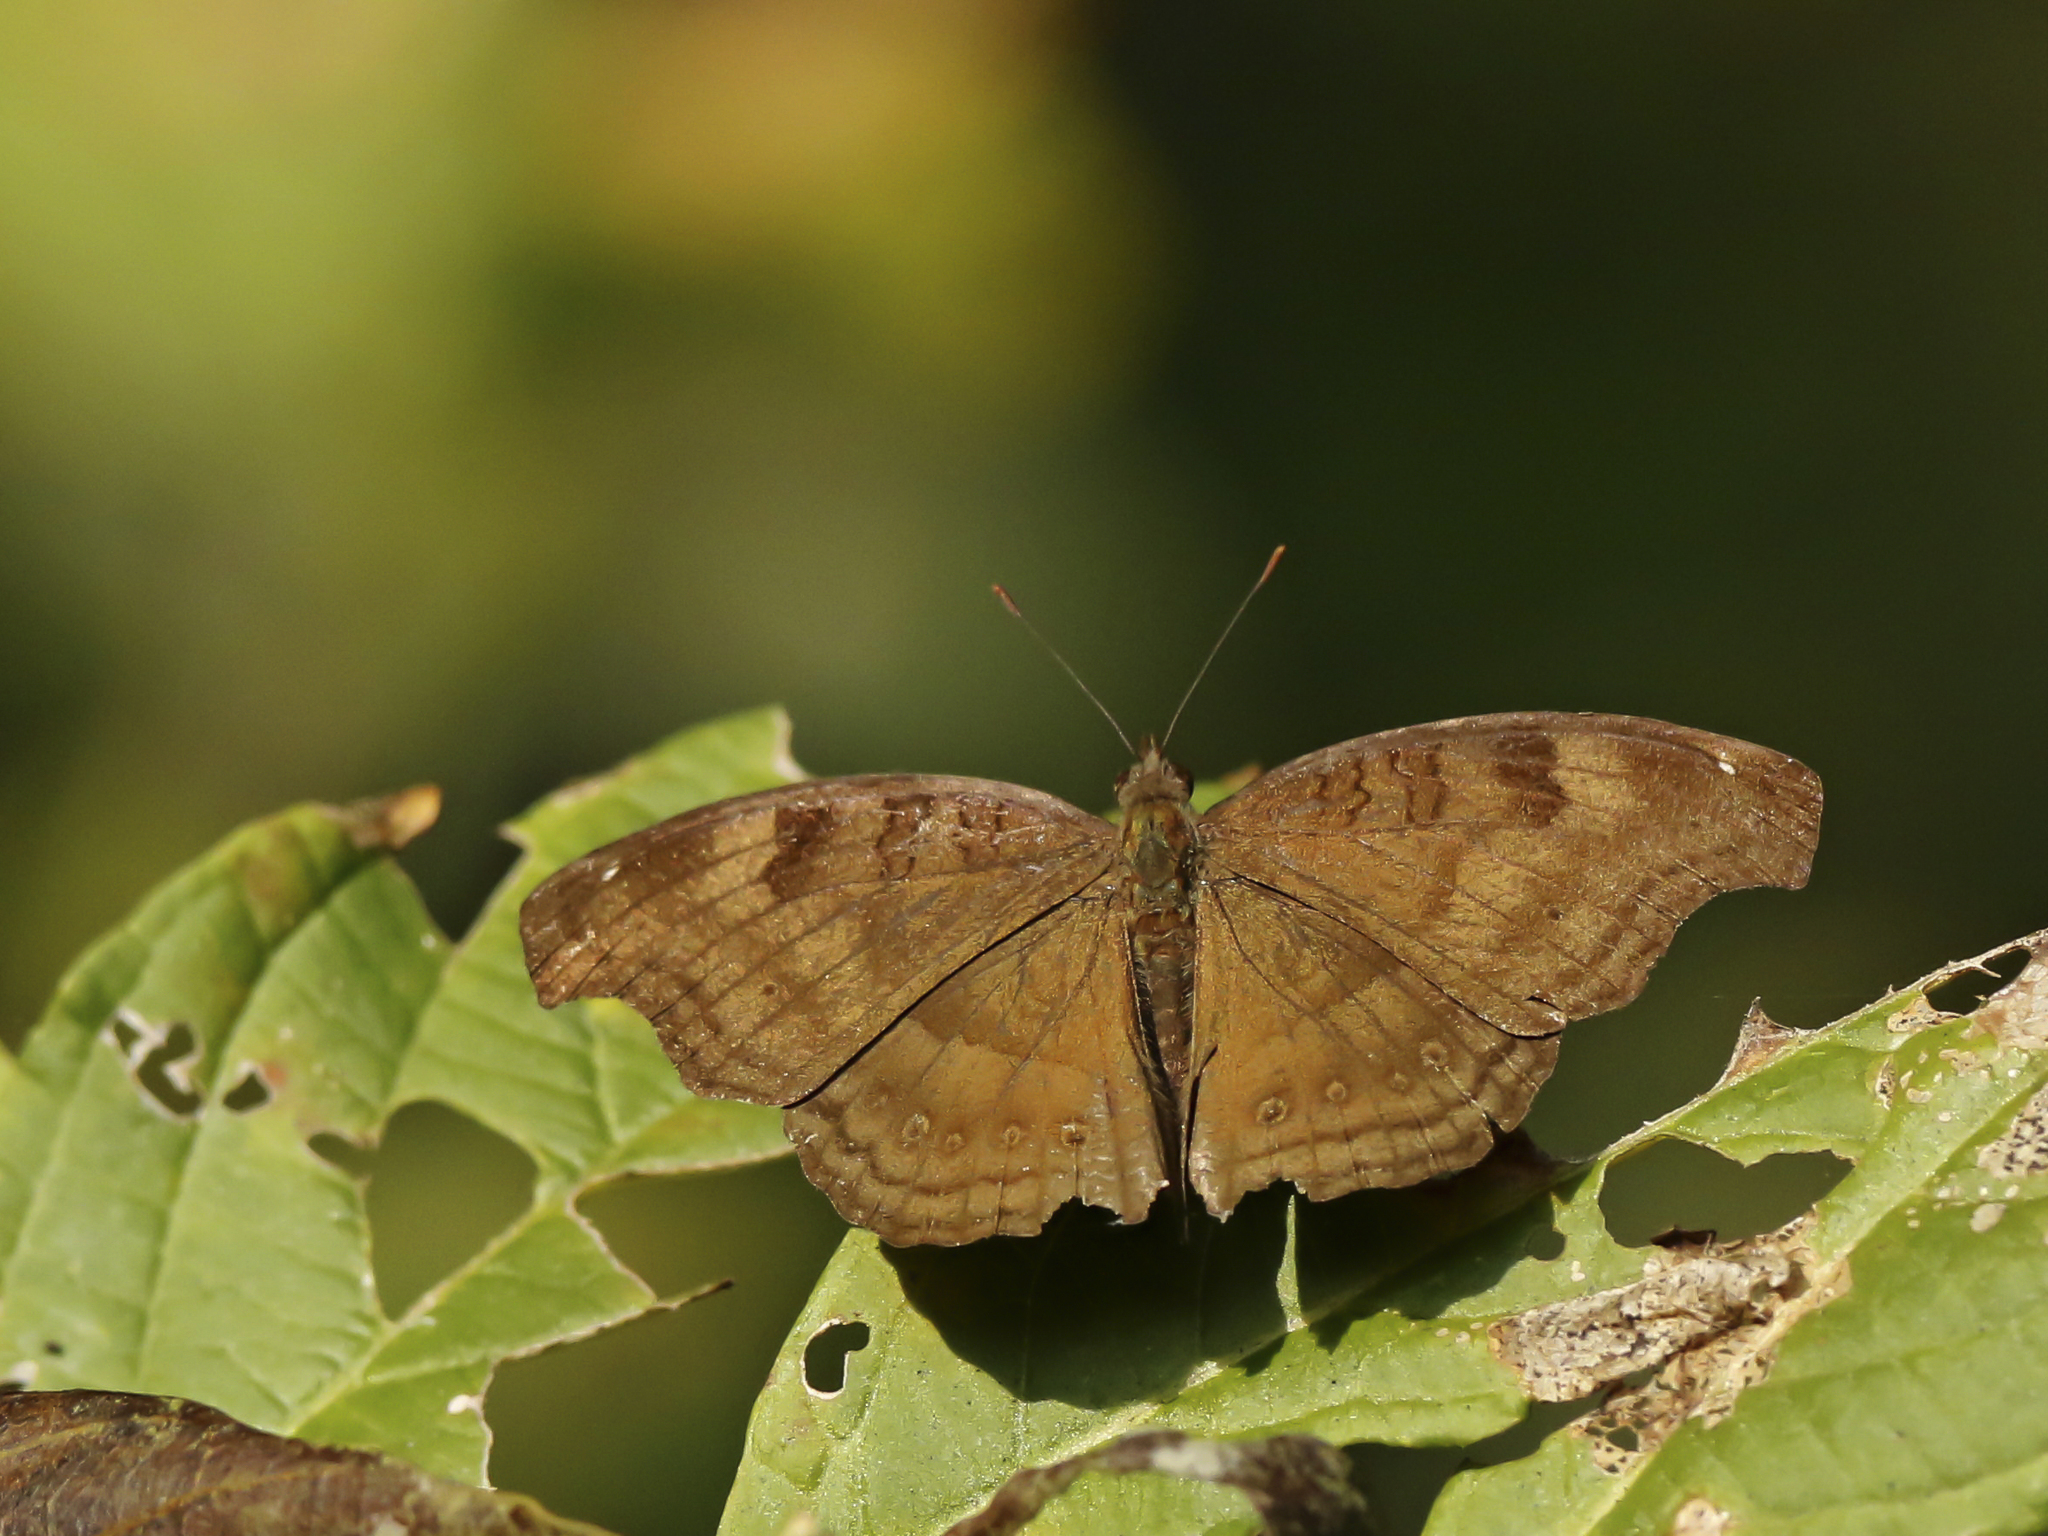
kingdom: Animalia
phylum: Arthropoda
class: Insecta
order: Lepidoptera
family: Nymphalidae
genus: Junonia
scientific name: Junonia iphita
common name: Chocolate pansy
